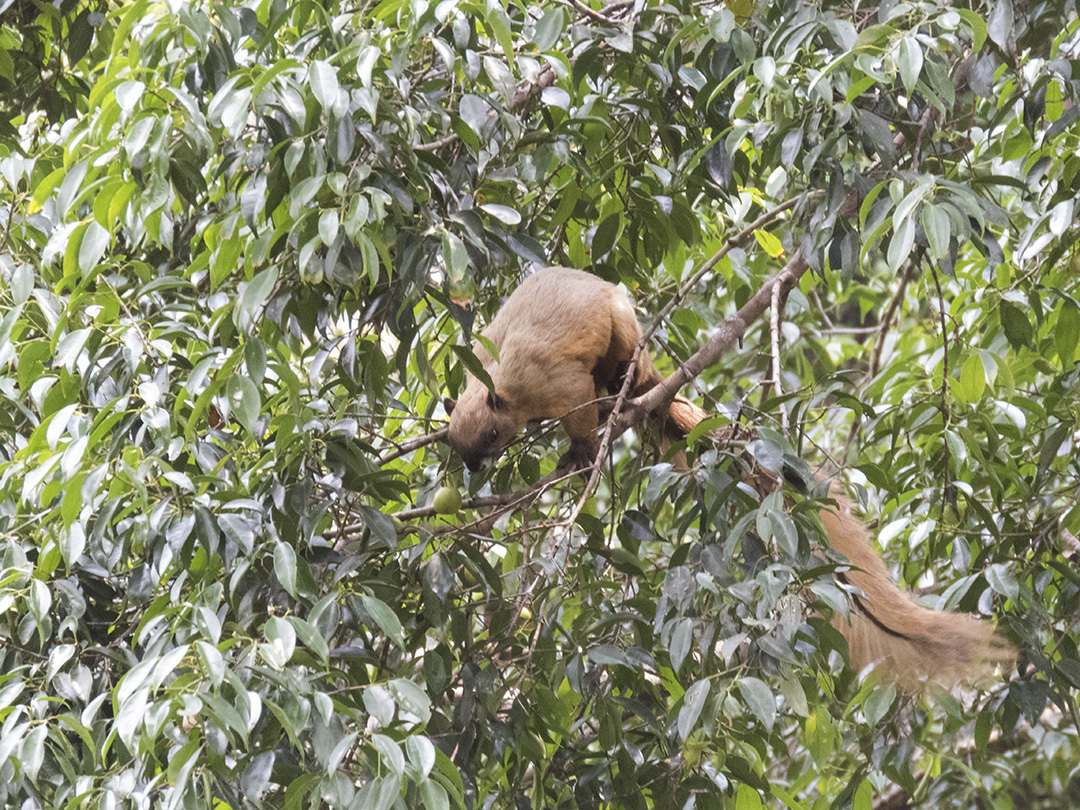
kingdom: Animalia
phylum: Chordata
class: Mammalia
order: Rodentia
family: Sciuridae
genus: Ratufa
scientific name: Ratufa affinis
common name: Pale giant squirrel
